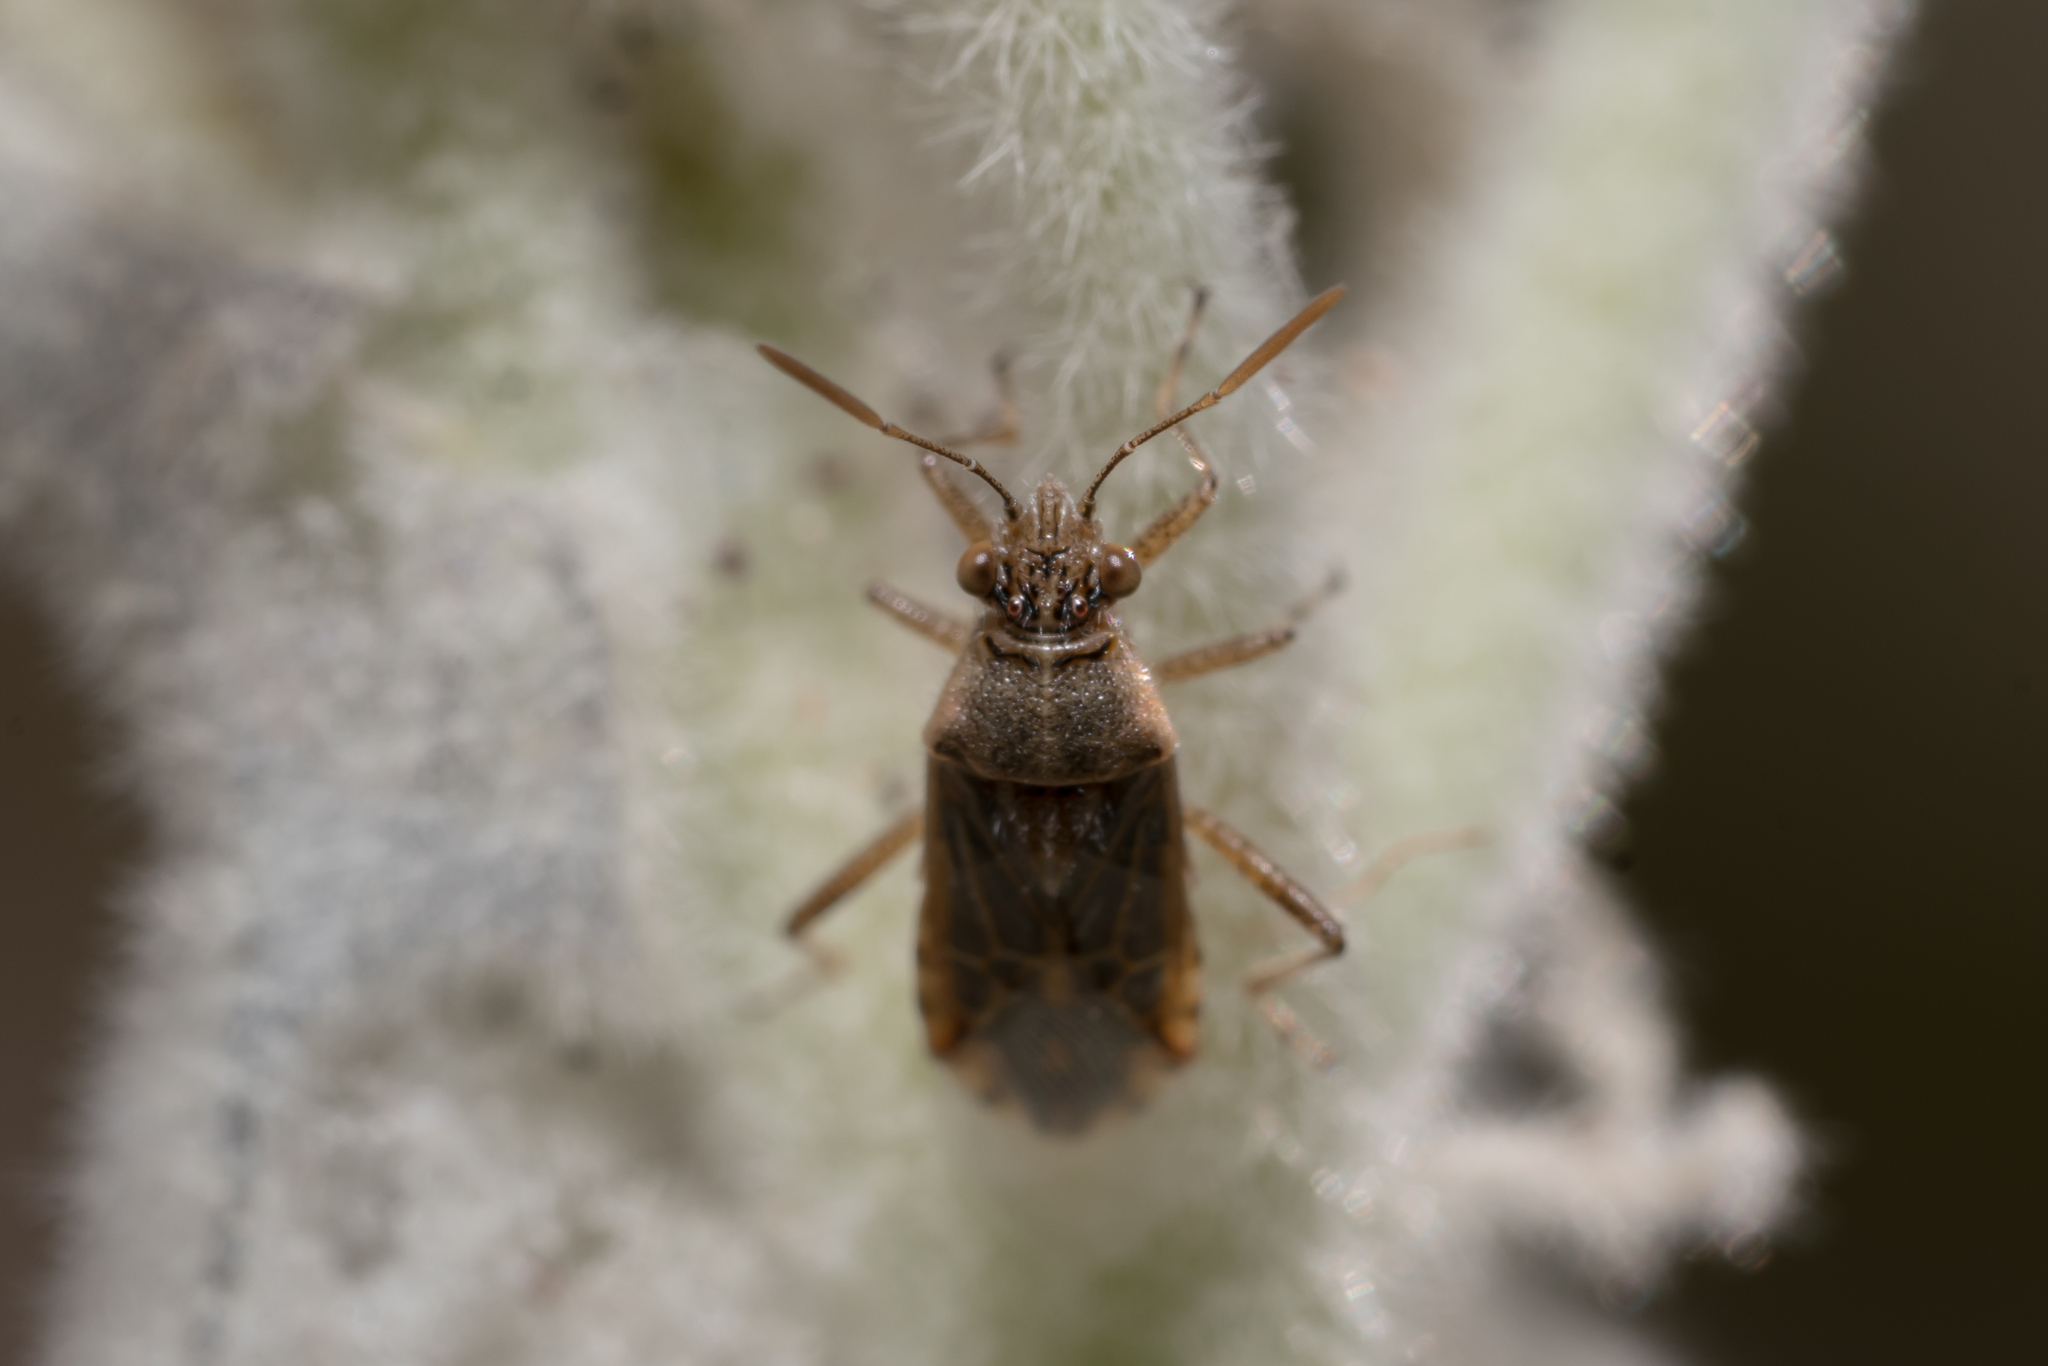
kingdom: Animalia
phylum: Arthropoda
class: Insecta
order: Hemiptera
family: Rhopalidae
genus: Liorhyssus
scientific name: Liorhyssus hyalinus
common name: Scentless plant bug
